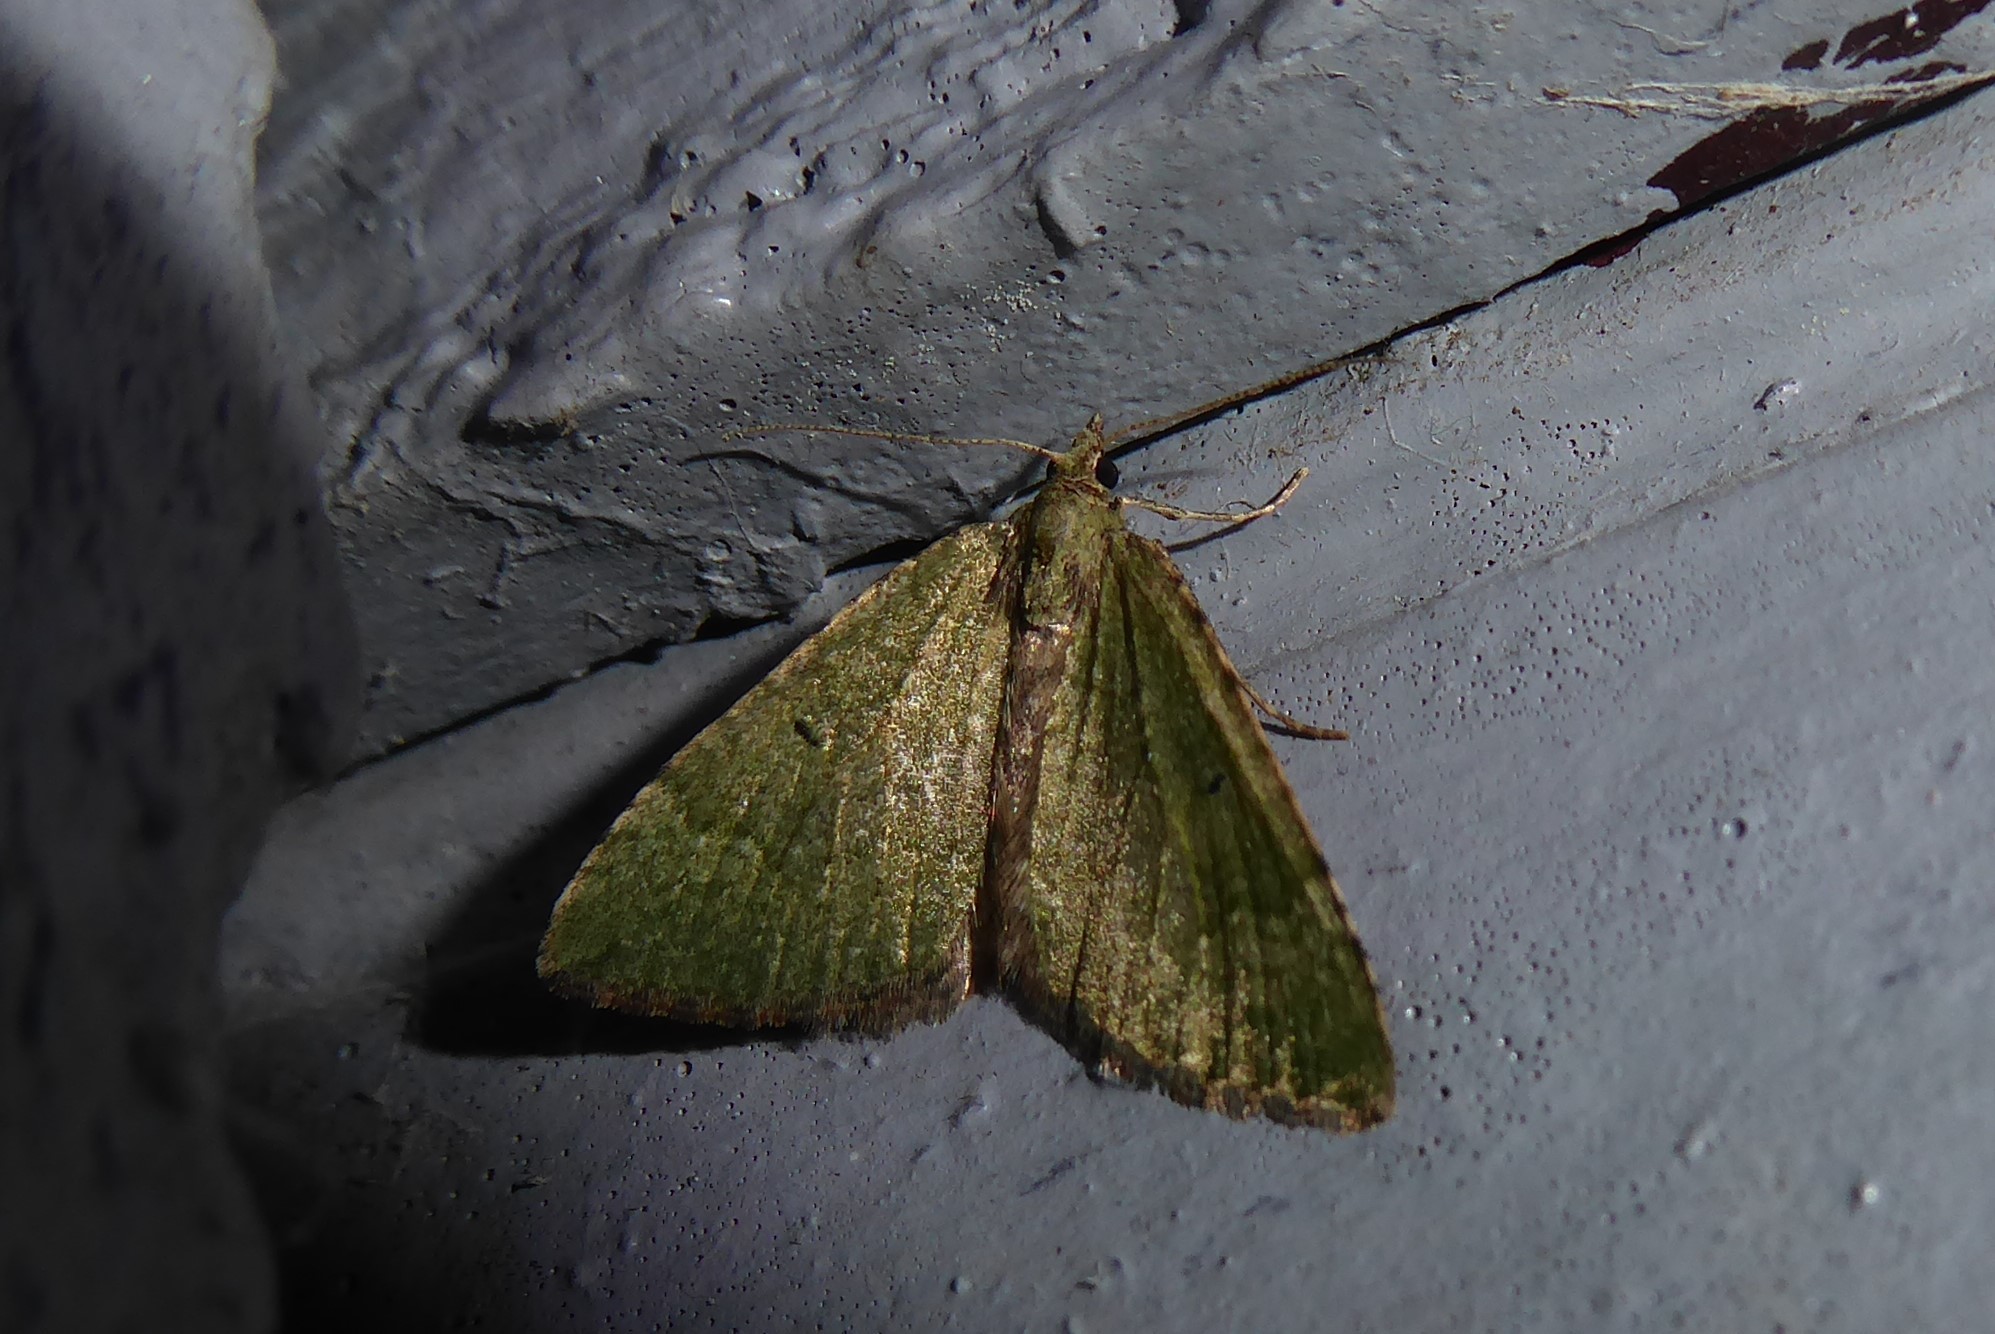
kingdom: Animalia
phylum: Arthropoda
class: Insecta
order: Lepidoptera
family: Geometridae
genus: Epyaxa
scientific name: Epyaxa rosearia
